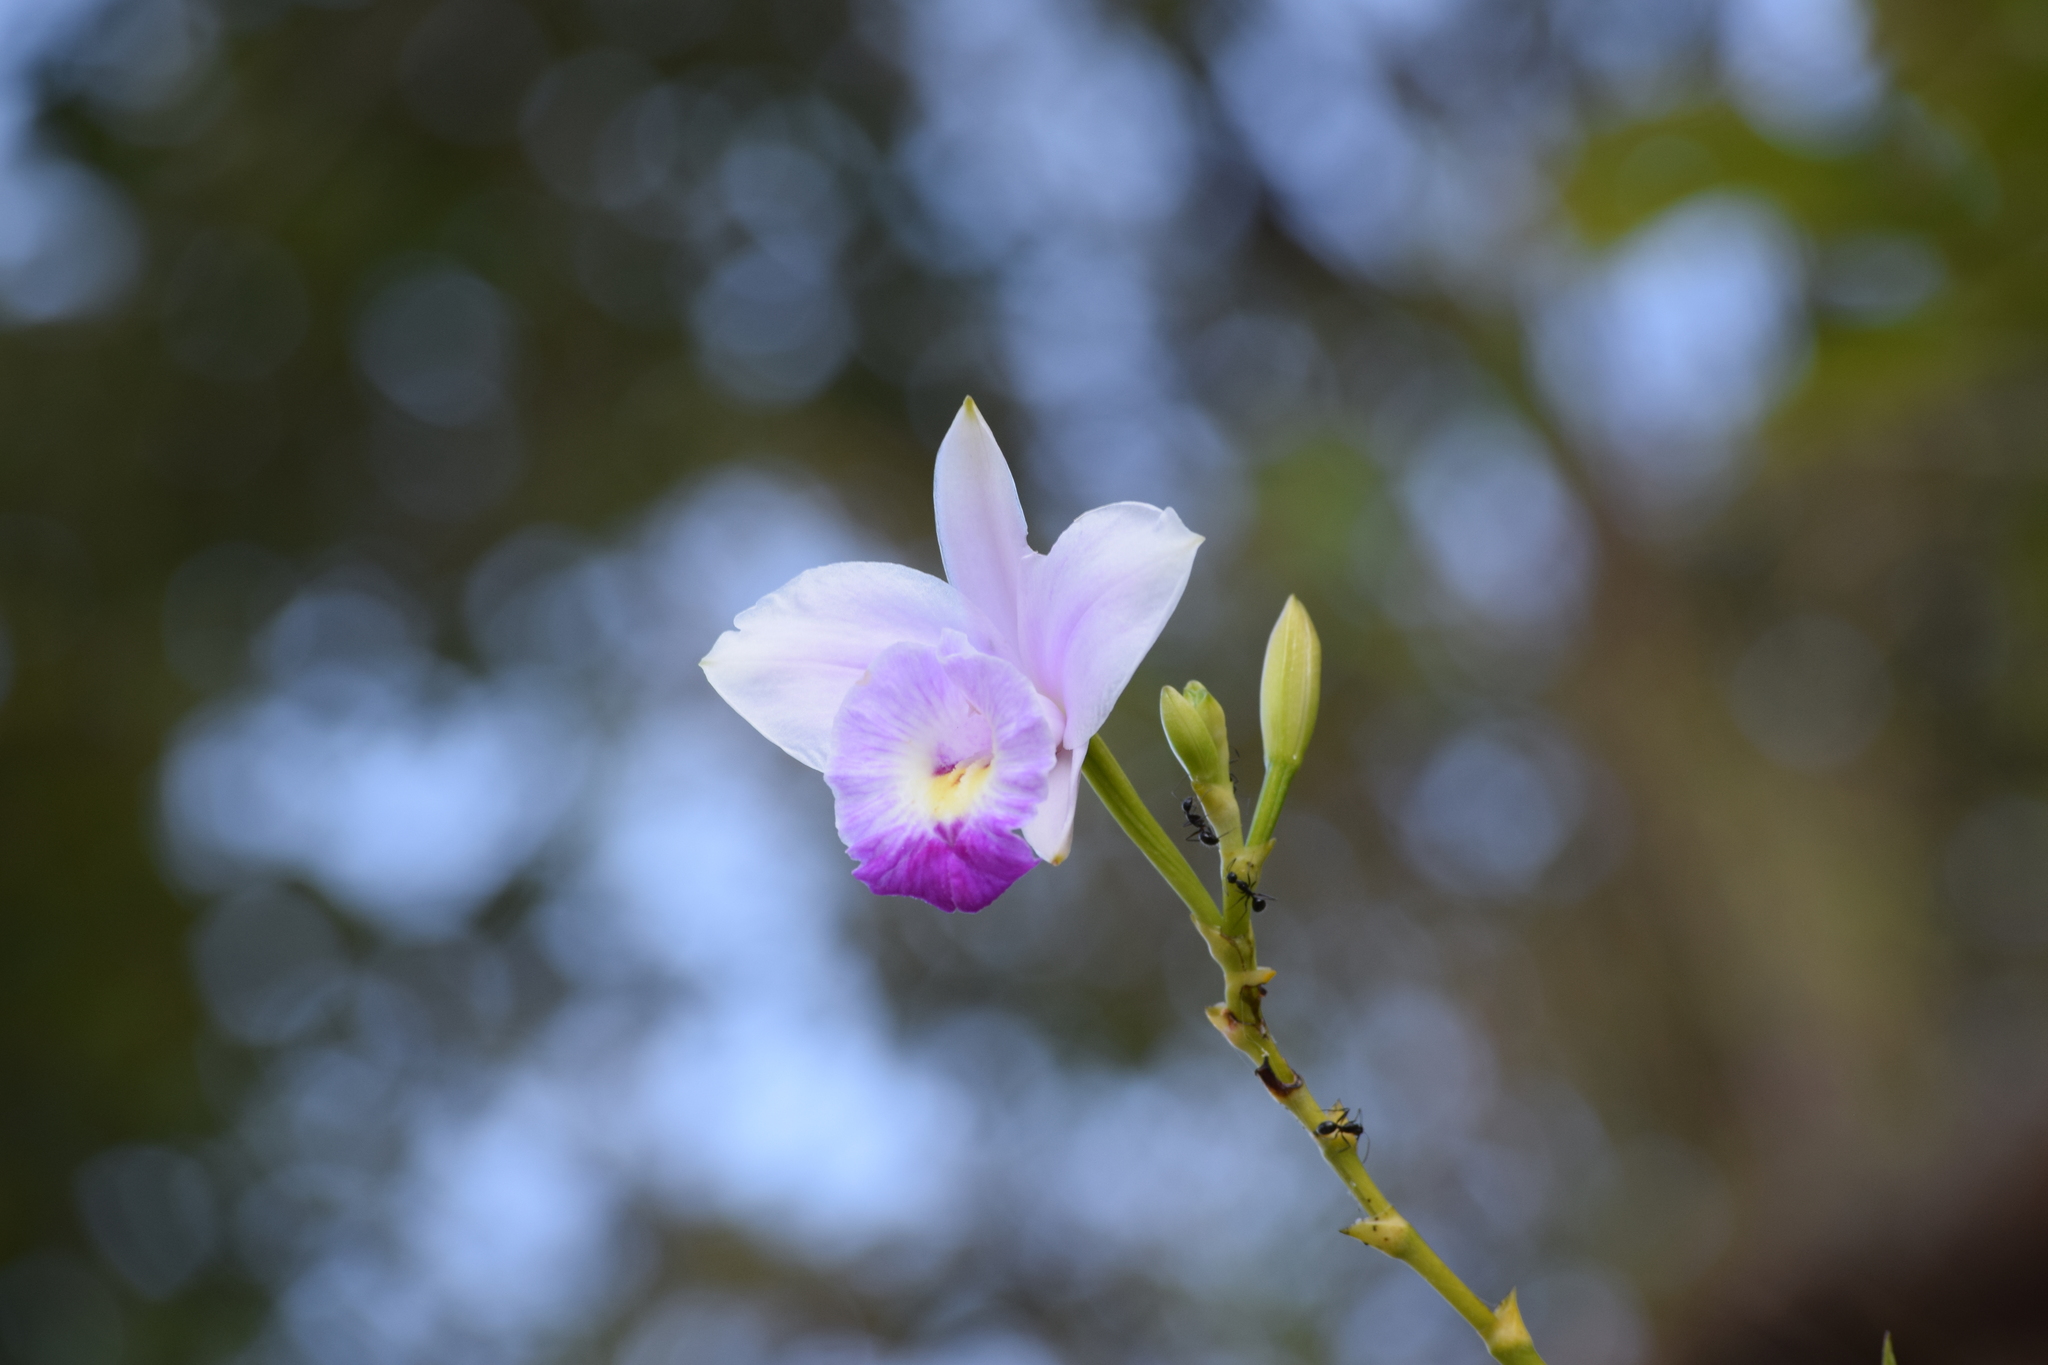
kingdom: Plantae
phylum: Tracheophyta
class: Liliopsida
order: Asparagales
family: Orchidaceae
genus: Arundina
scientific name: Arundina graminifolia
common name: Bamboo orchid
